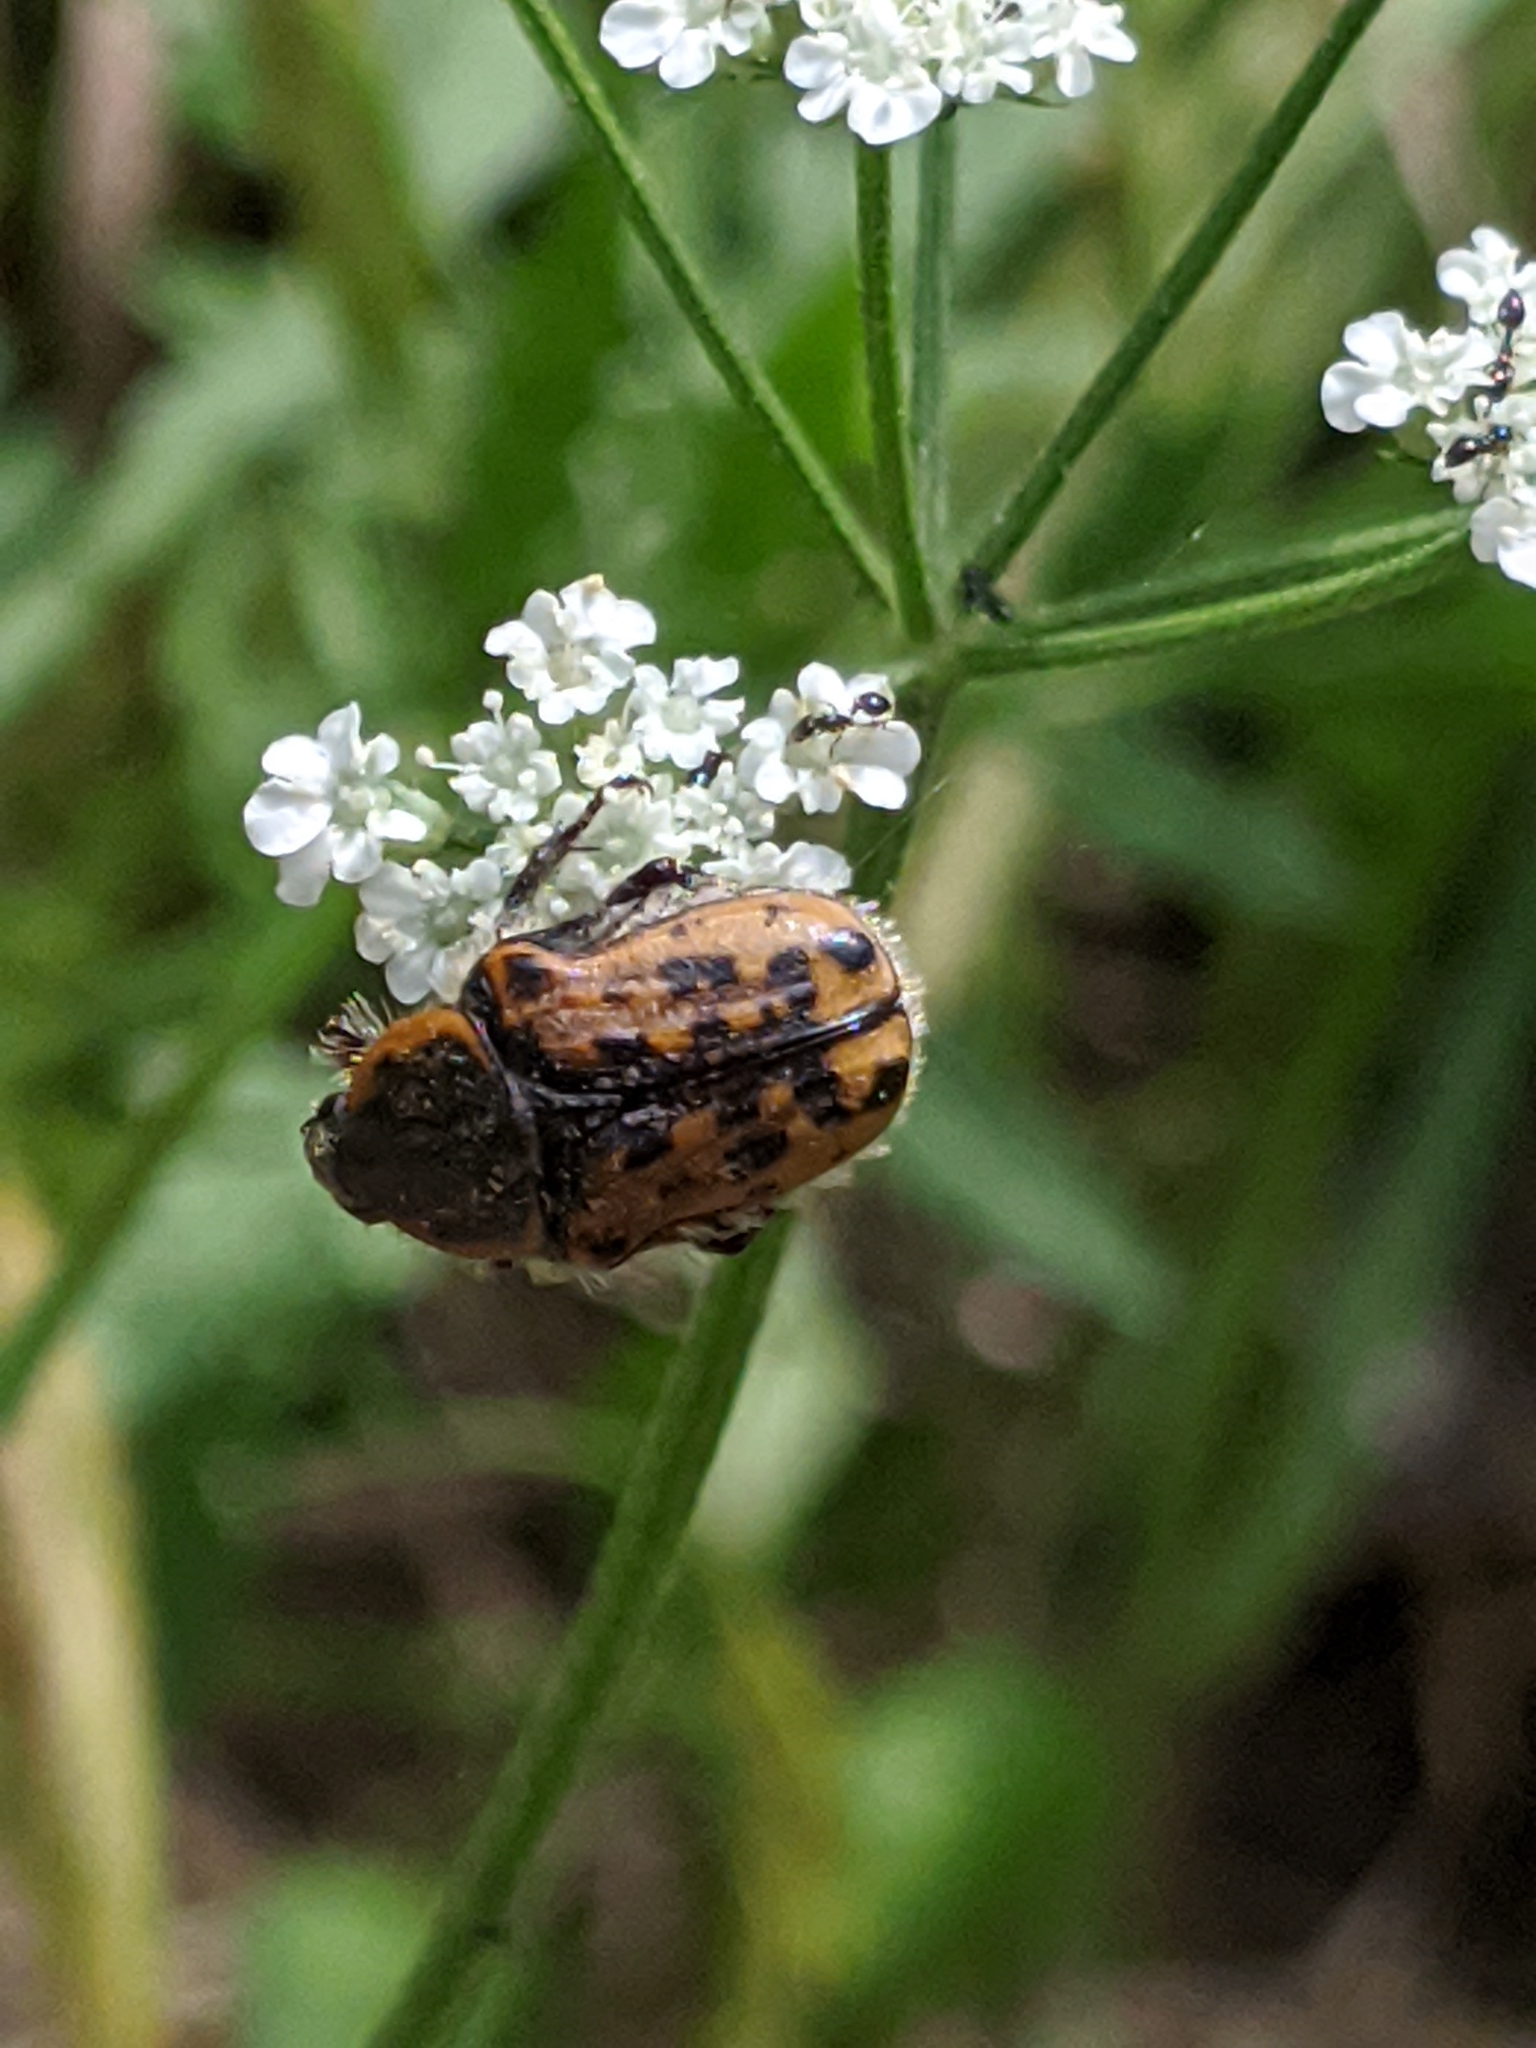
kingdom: Animalia
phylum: Arthropoda
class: Insecta
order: Coleoptera
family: Scarabaeidae
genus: Euphoria
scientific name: Euphoria kernii
